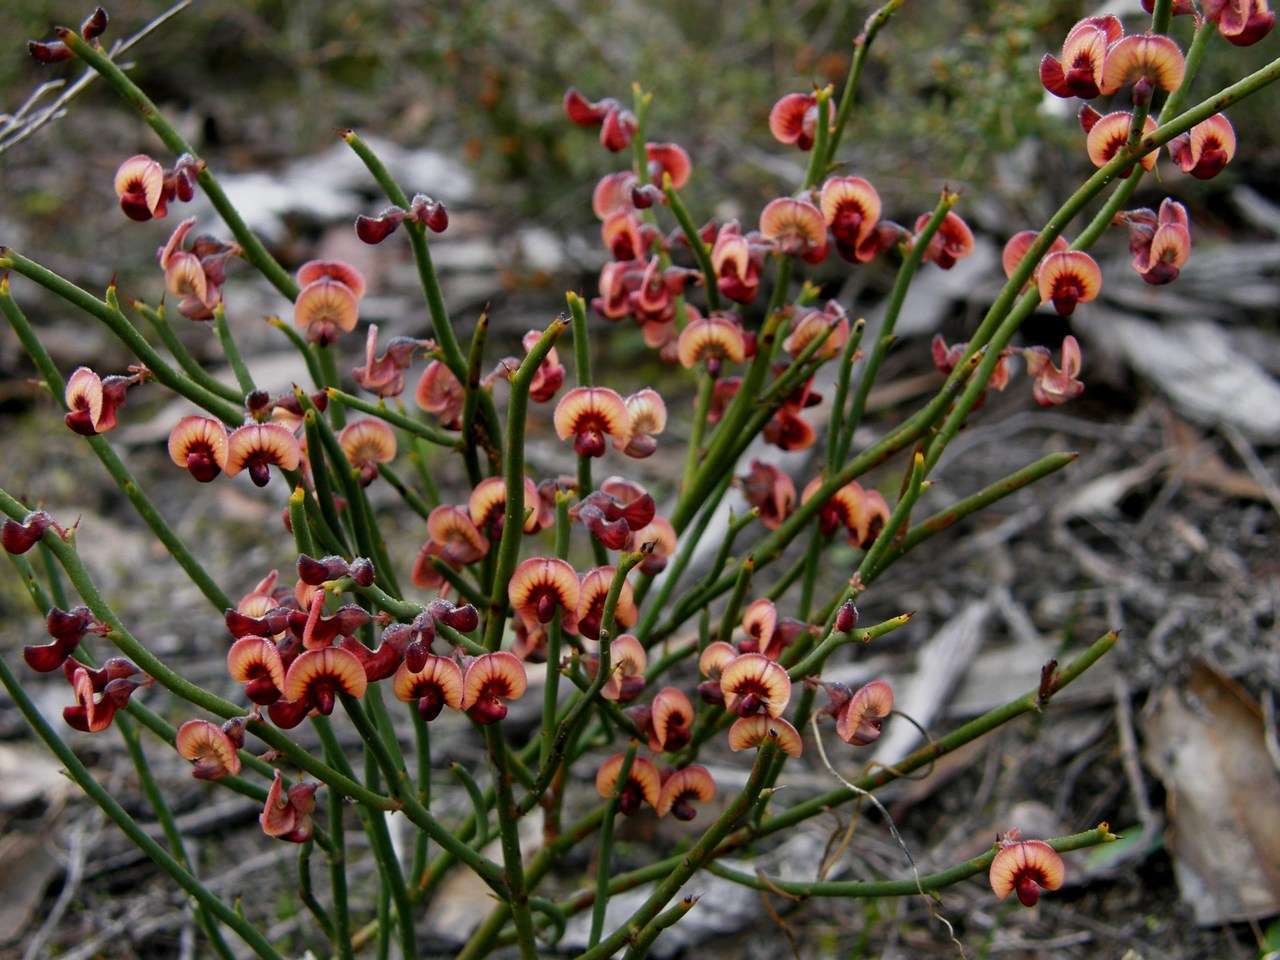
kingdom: Plantae
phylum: Tracheophyta
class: Magnoliopsida
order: Fabales
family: Fabaceae
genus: Daviesia
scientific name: Daviesia brevifolia
